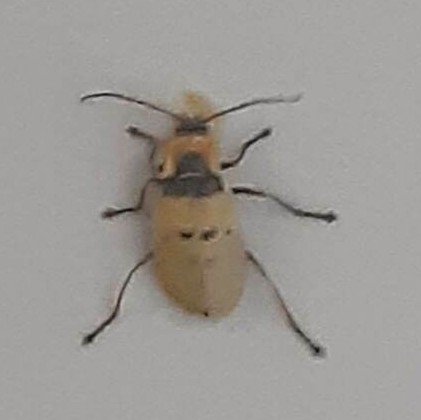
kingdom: Animalia
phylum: Arthropoda
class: Insecta
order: Coleoptera
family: Cantharidae
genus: Chauliognathus
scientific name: Chauliognathus
